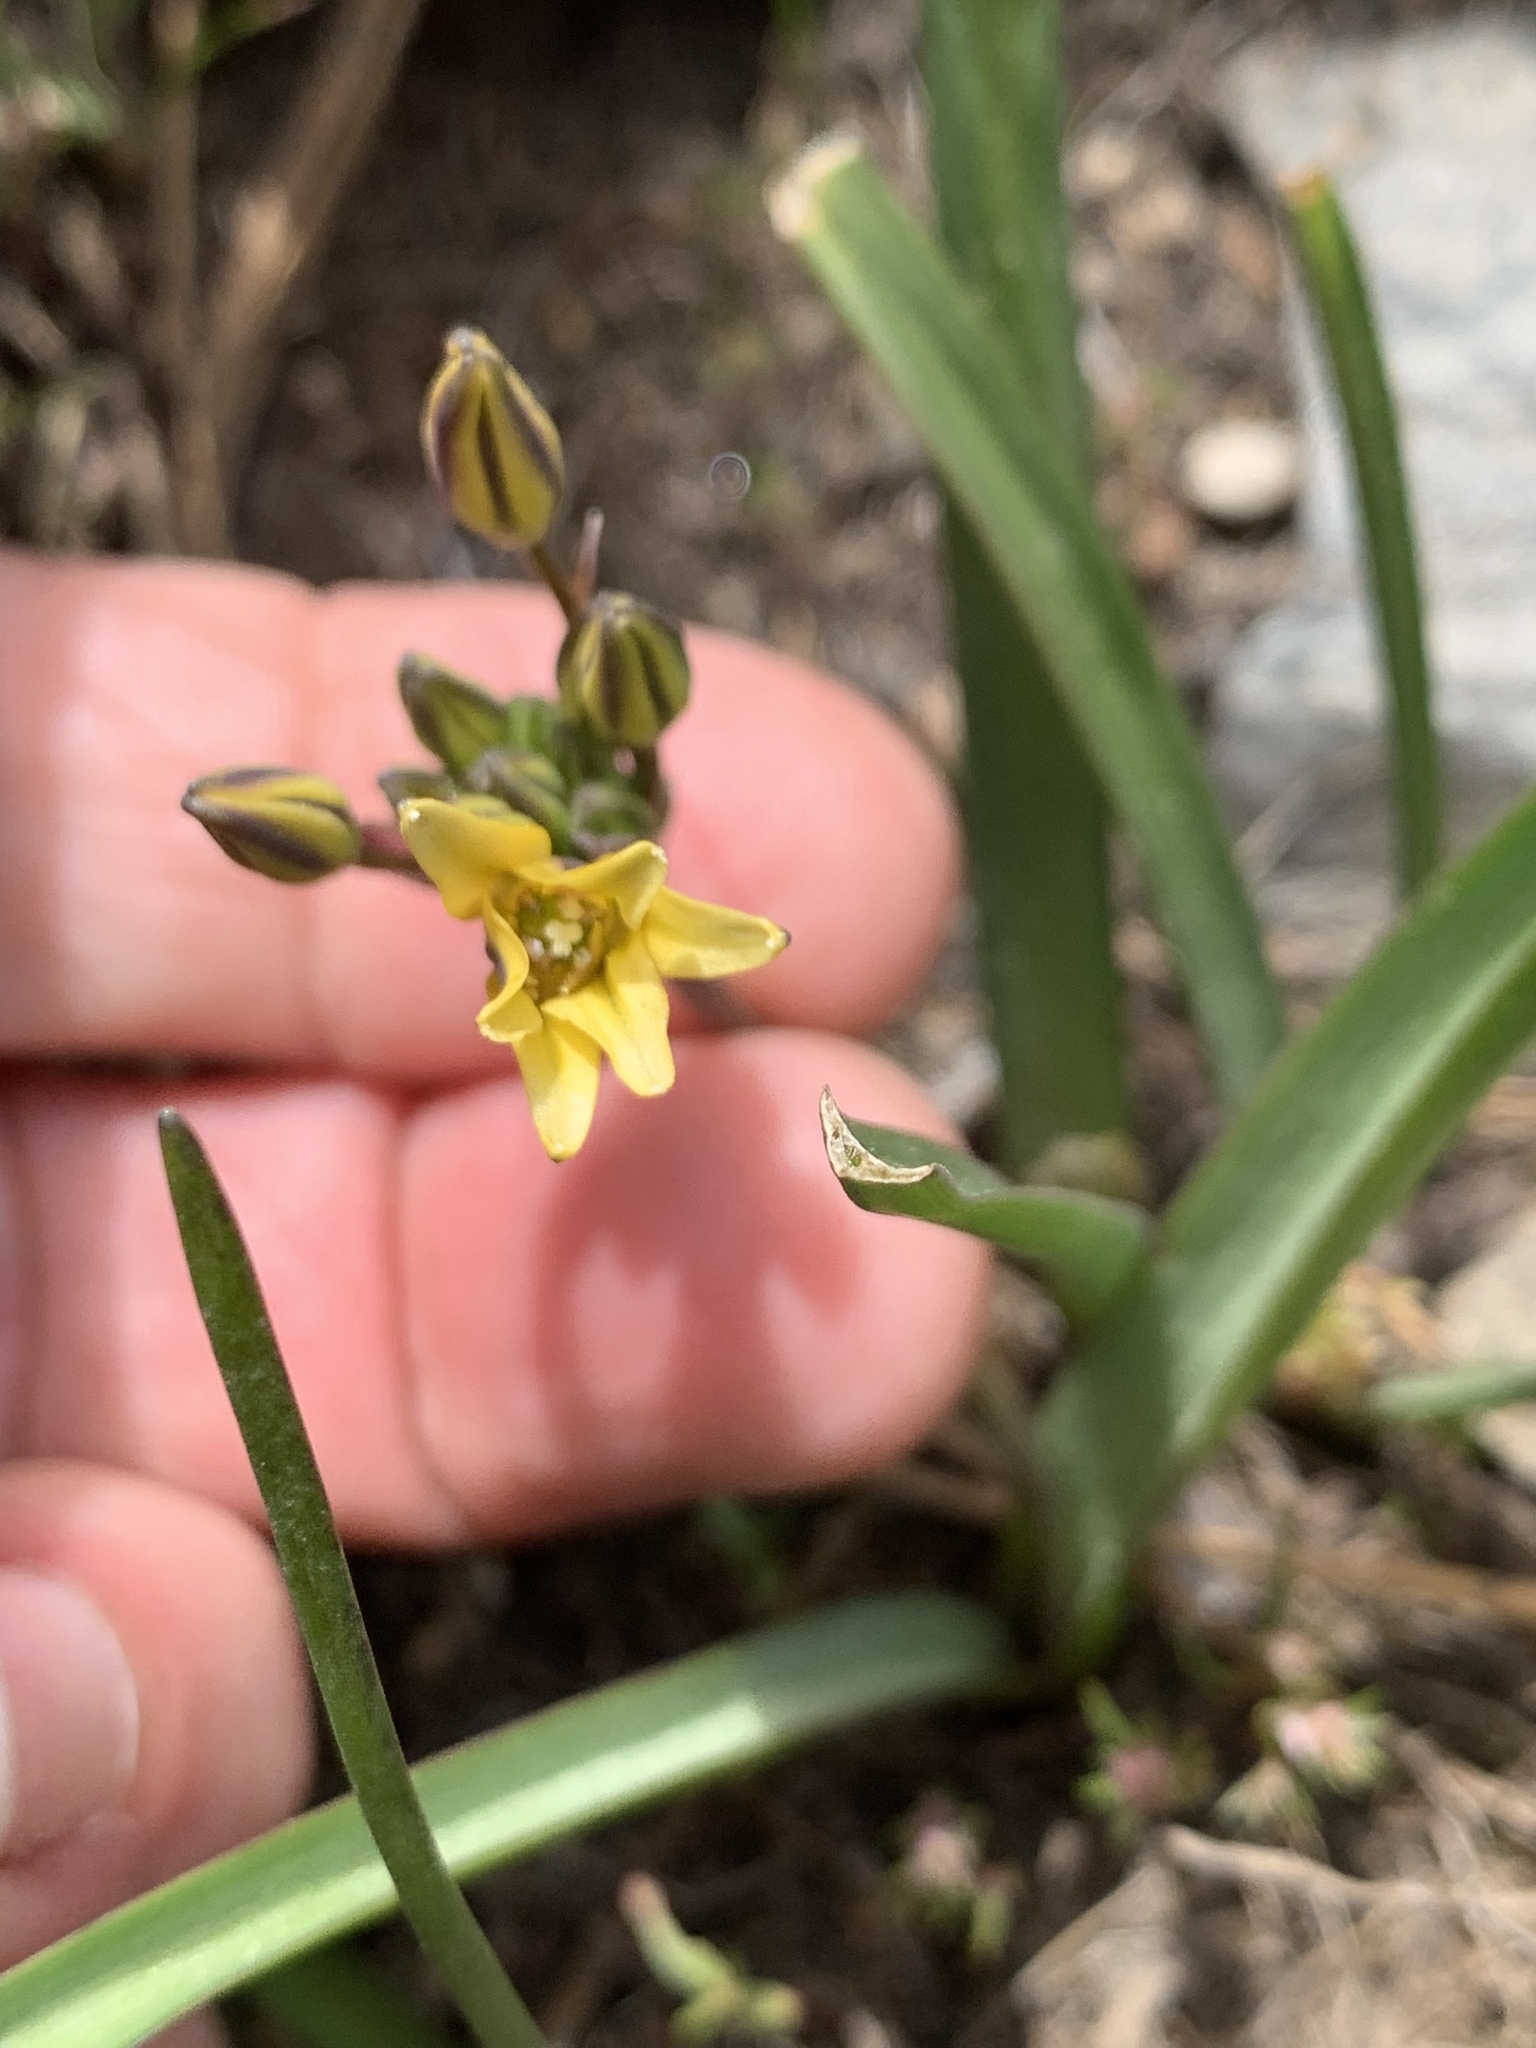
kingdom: Plantae
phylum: Tracheophyta
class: Liliopsida
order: Asparagales
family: Asparagaceae
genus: Triteleia
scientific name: Triteleia ixioides
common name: Yellow-brodiaea
